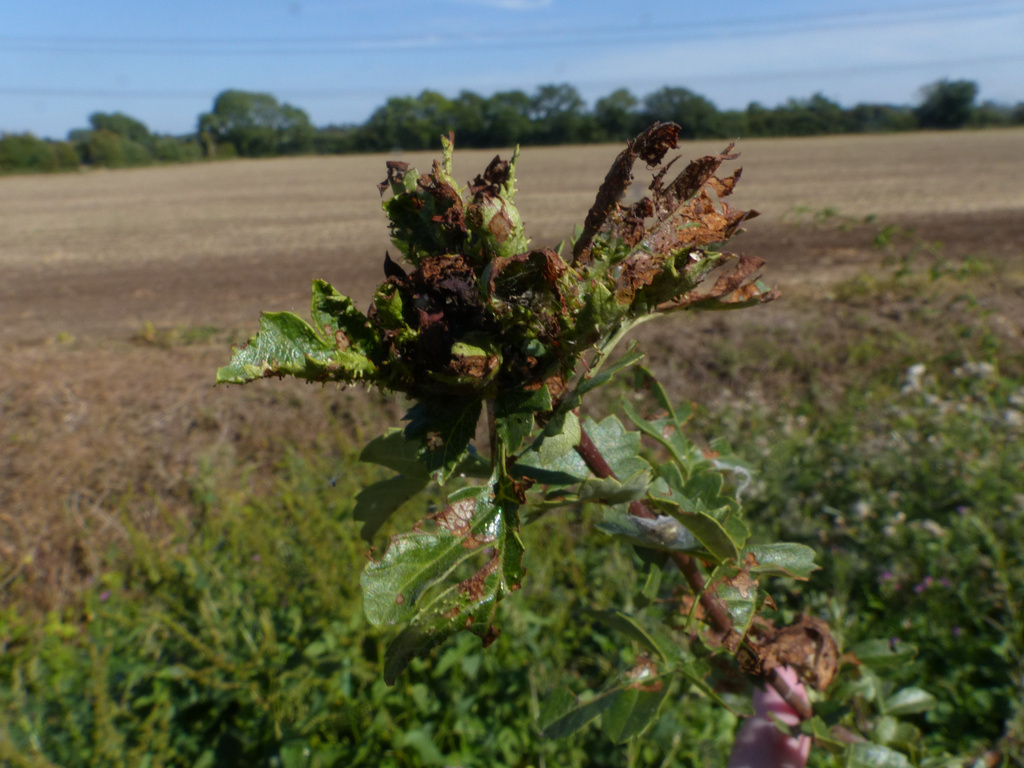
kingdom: Animalia
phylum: Arthropoda
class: Insecta
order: Diptera
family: Cecidomyiidae
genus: Dasineura
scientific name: Dasineura crataegi
